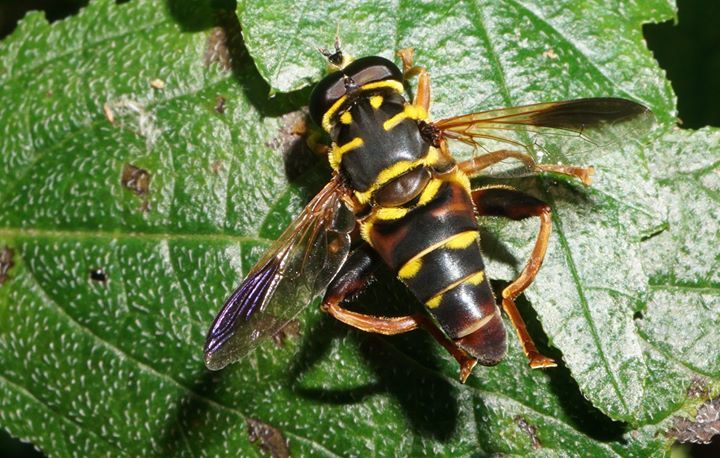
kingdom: Animalia
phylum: Arthropoda
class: Insecta
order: Diptera
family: Syrphidae
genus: Meromacrus
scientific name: Meromacrus acutus
